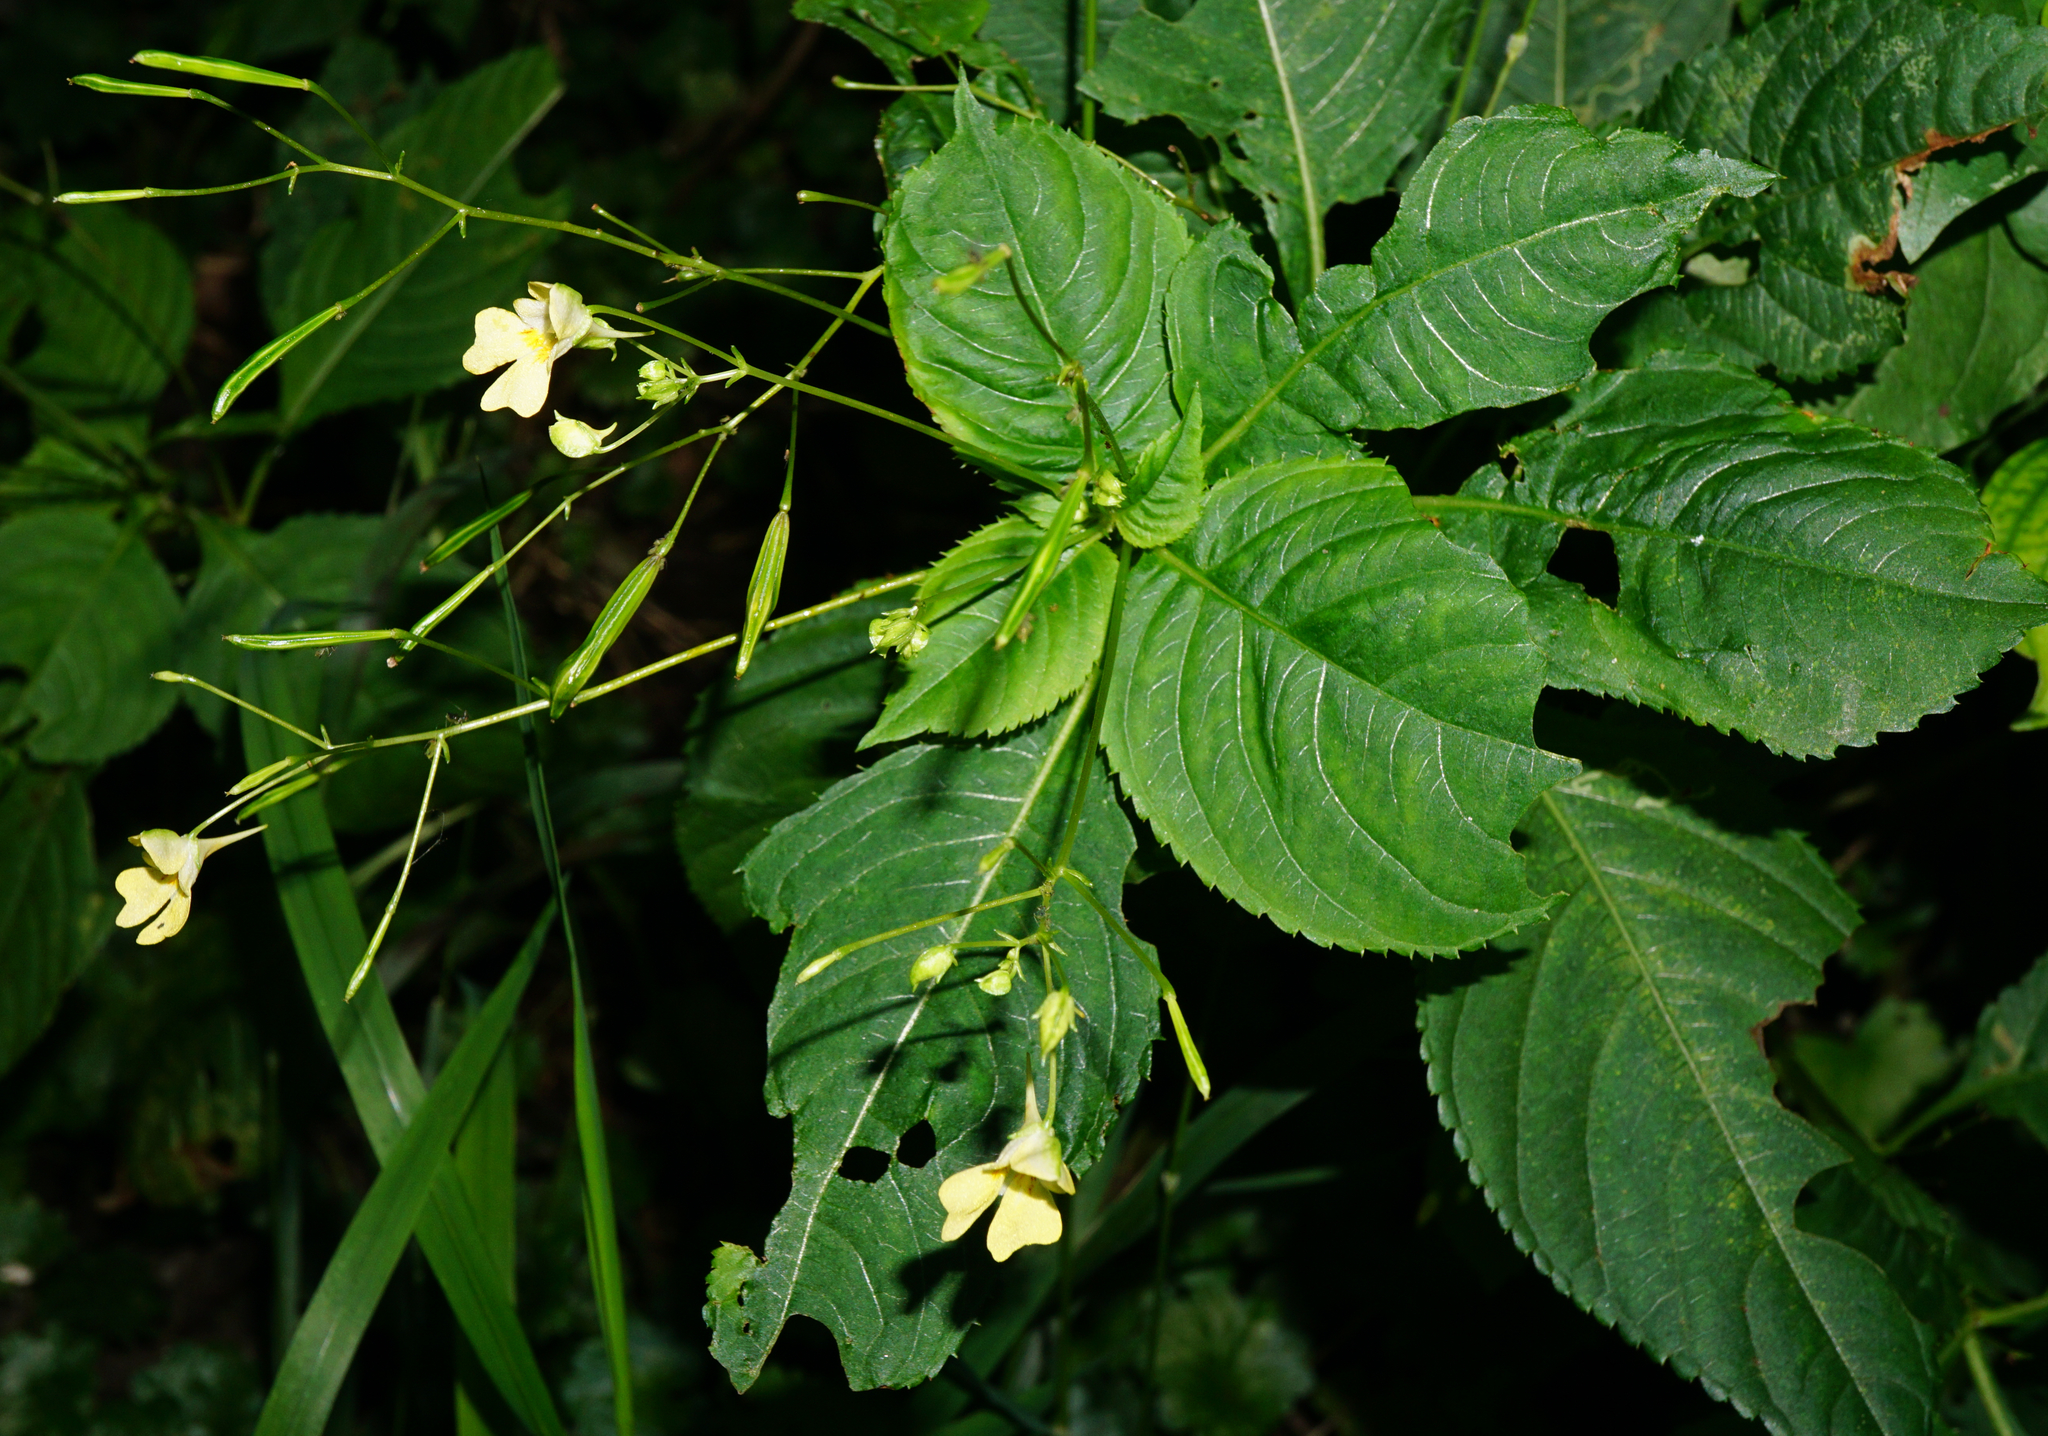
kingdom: Plantae
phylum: Tracheophyta
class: Magnoliopsida
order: Ericales
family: Balsaminaceae
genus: Impatiens
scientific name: Impatiens parviflora
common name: Small balsam
